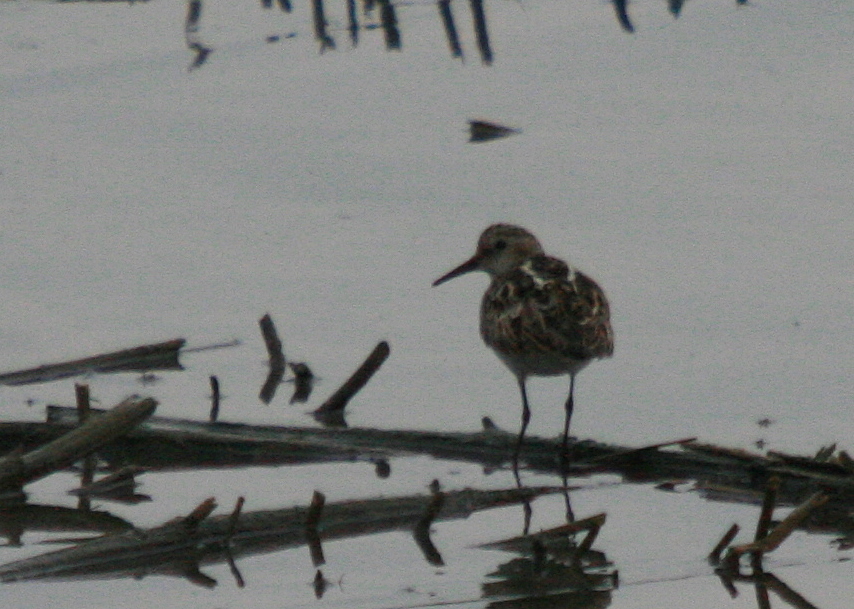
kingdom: Animalia
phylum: Chordata
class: Aves
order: Charadriiformes
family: Scolopacidae
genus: Calidris
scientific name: Calidris minuta
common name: Little stint
